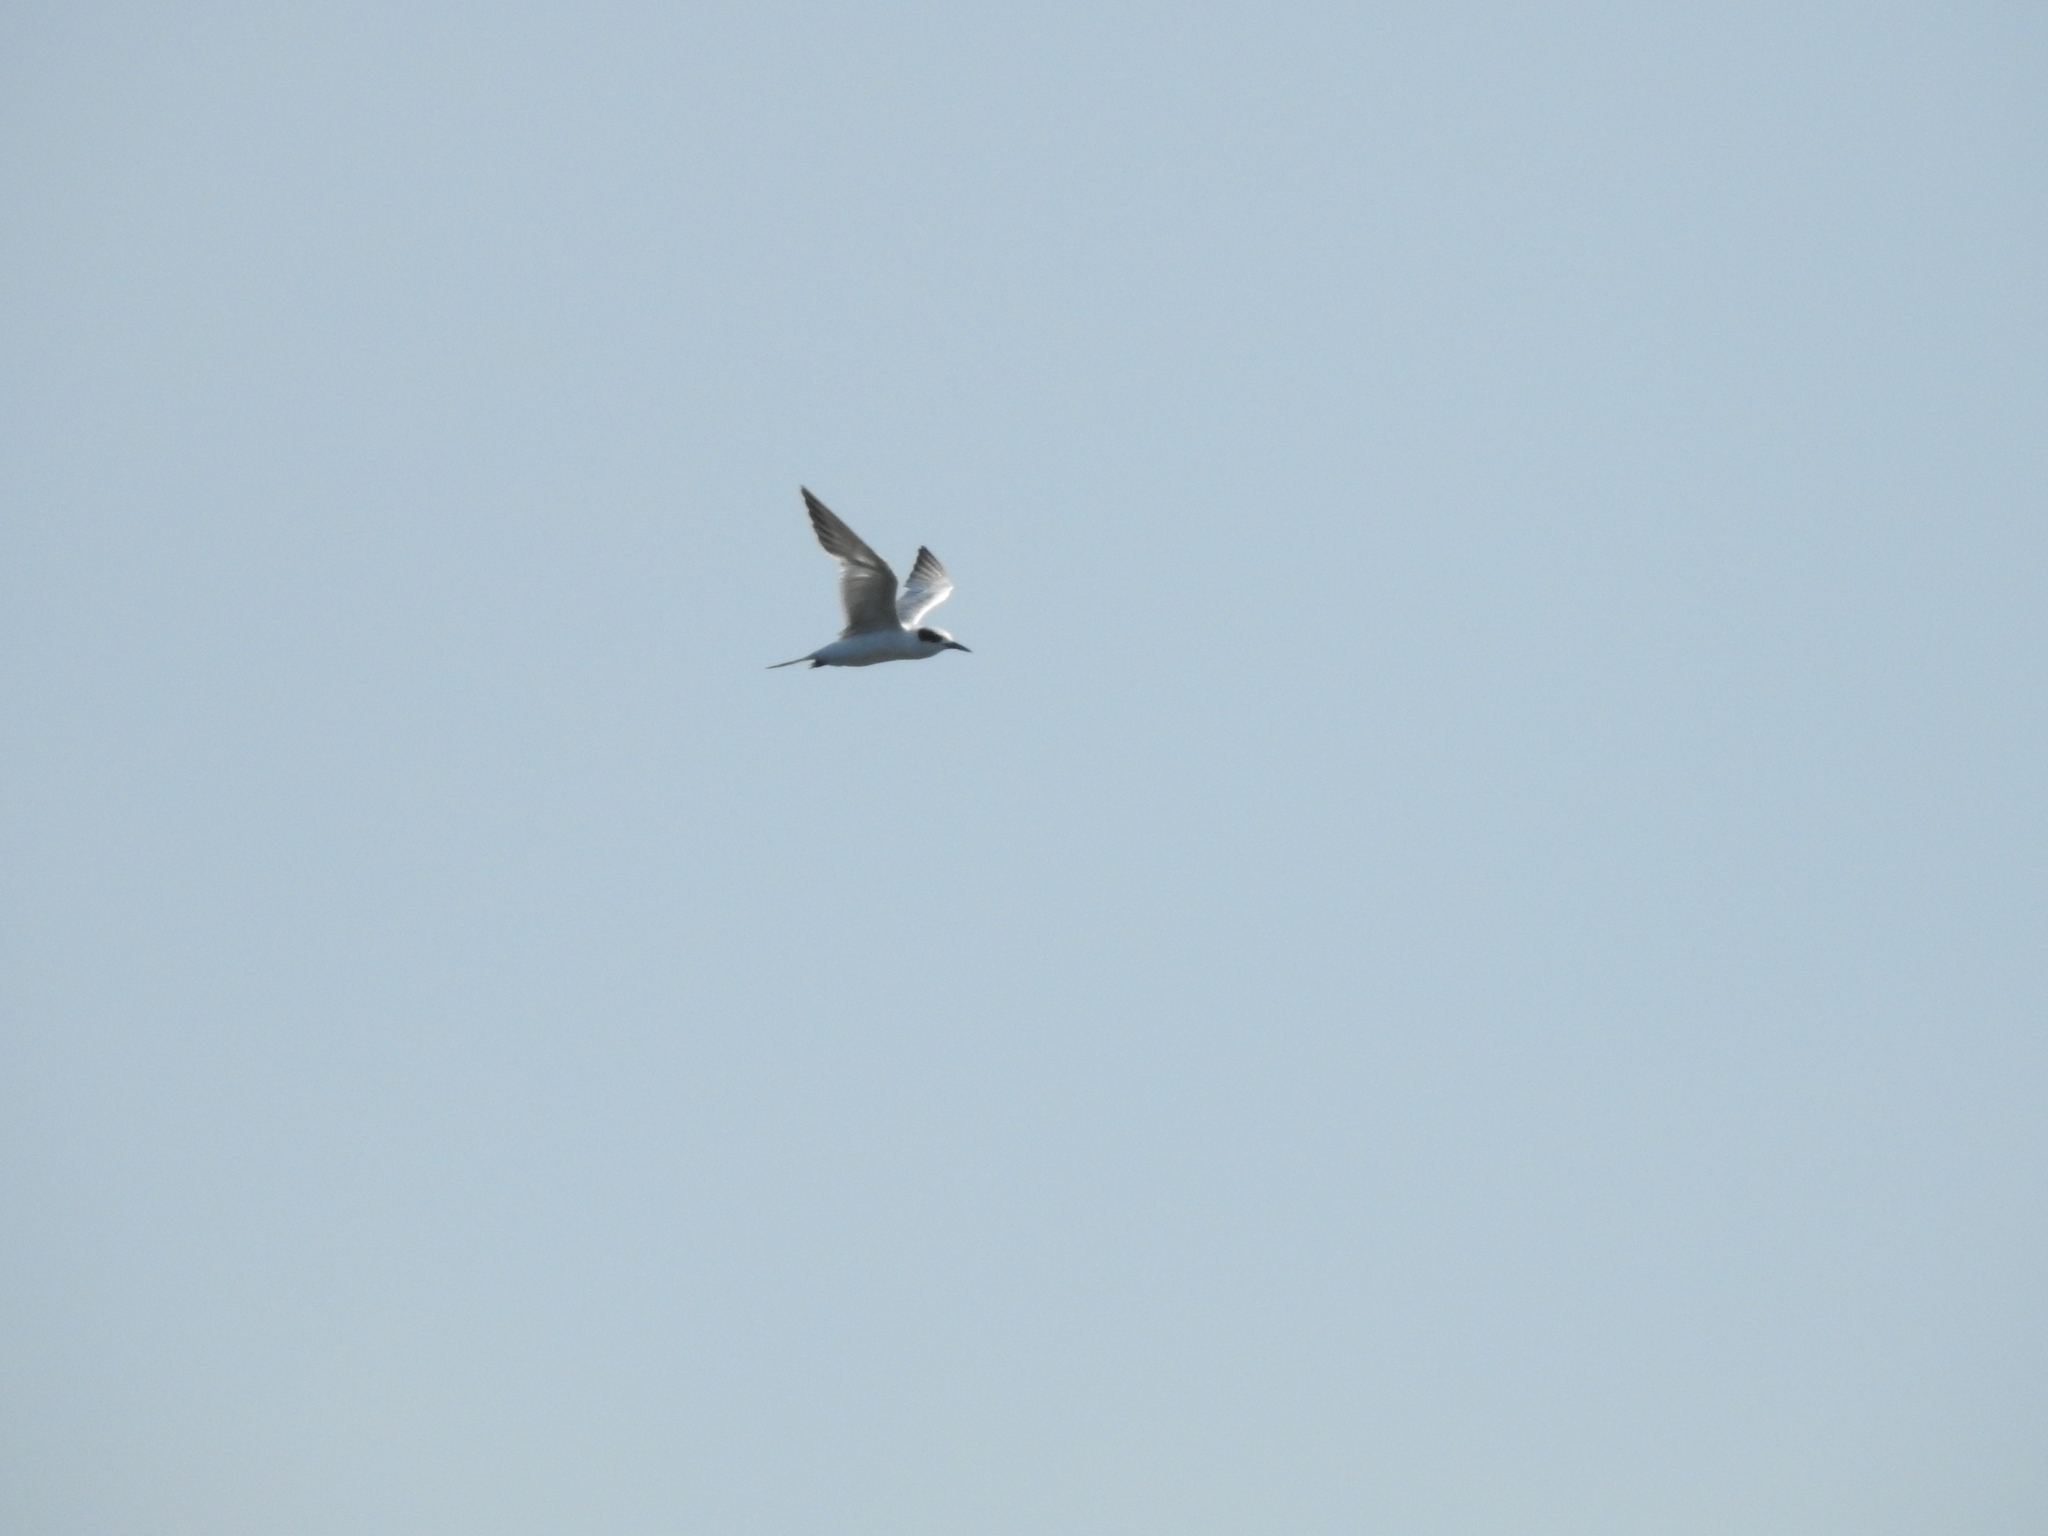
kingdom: Animalia
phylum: Chordata
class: Aves
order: Charadriiformes
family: Laridae
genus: Sterna
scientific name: Sterna forsteri
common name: Forster's tern
